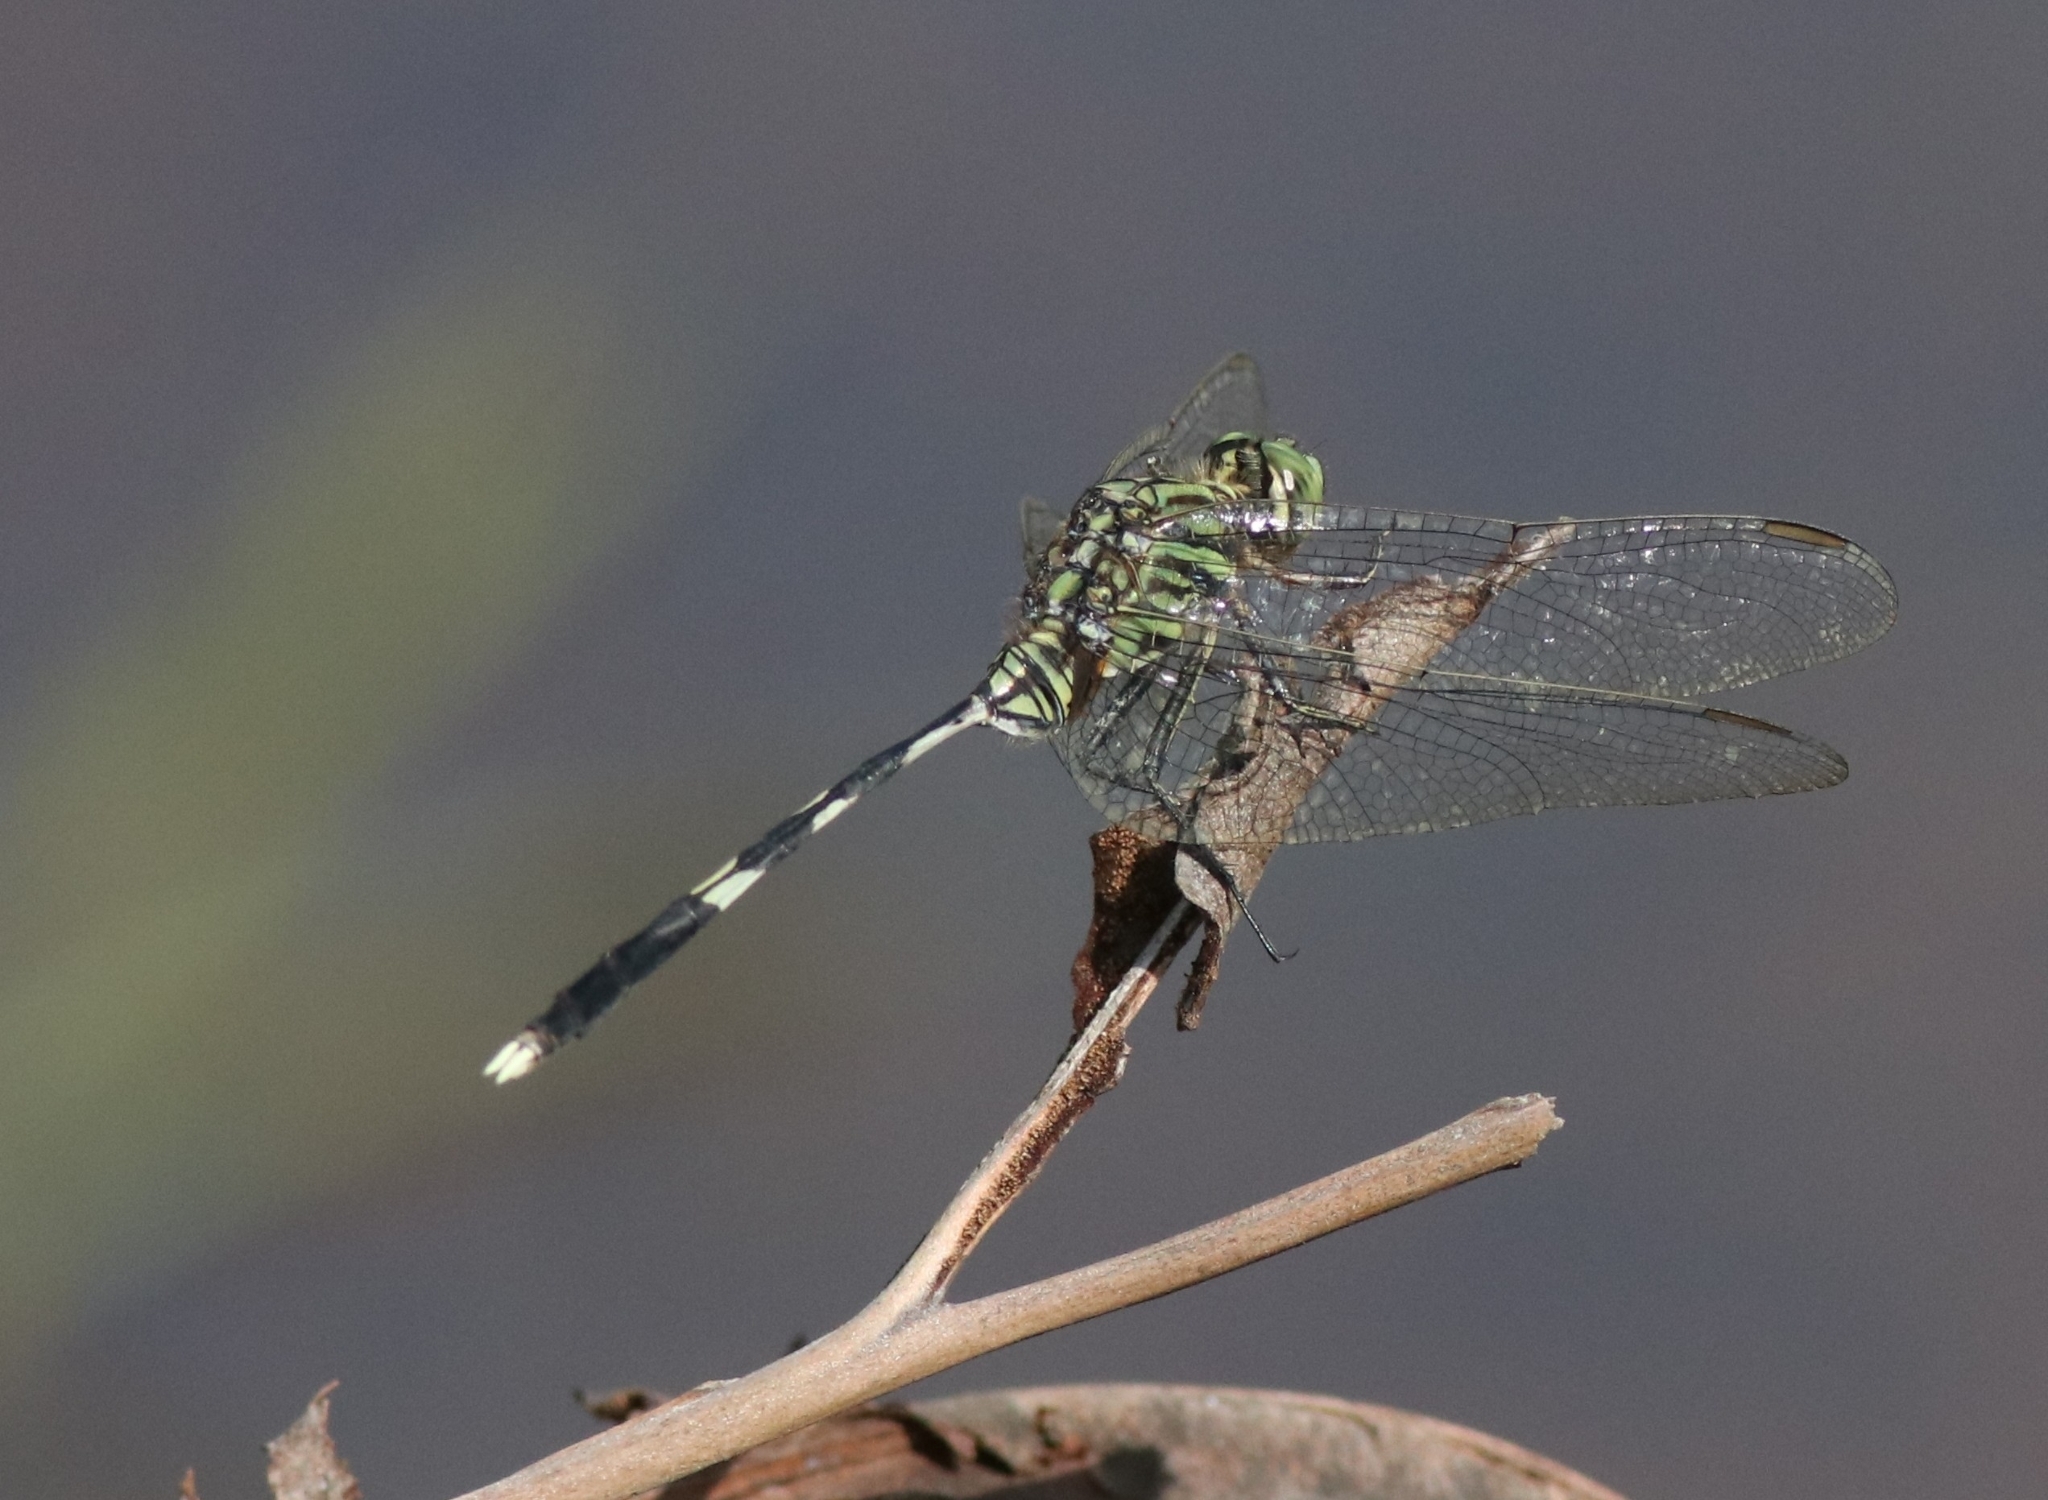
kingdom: Animalia
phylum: Arthropoda
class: Insecta
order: Odonata
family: Libellulidae
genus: Orthetrum
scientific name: Orthetrum sabina
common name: Slender skimmer
